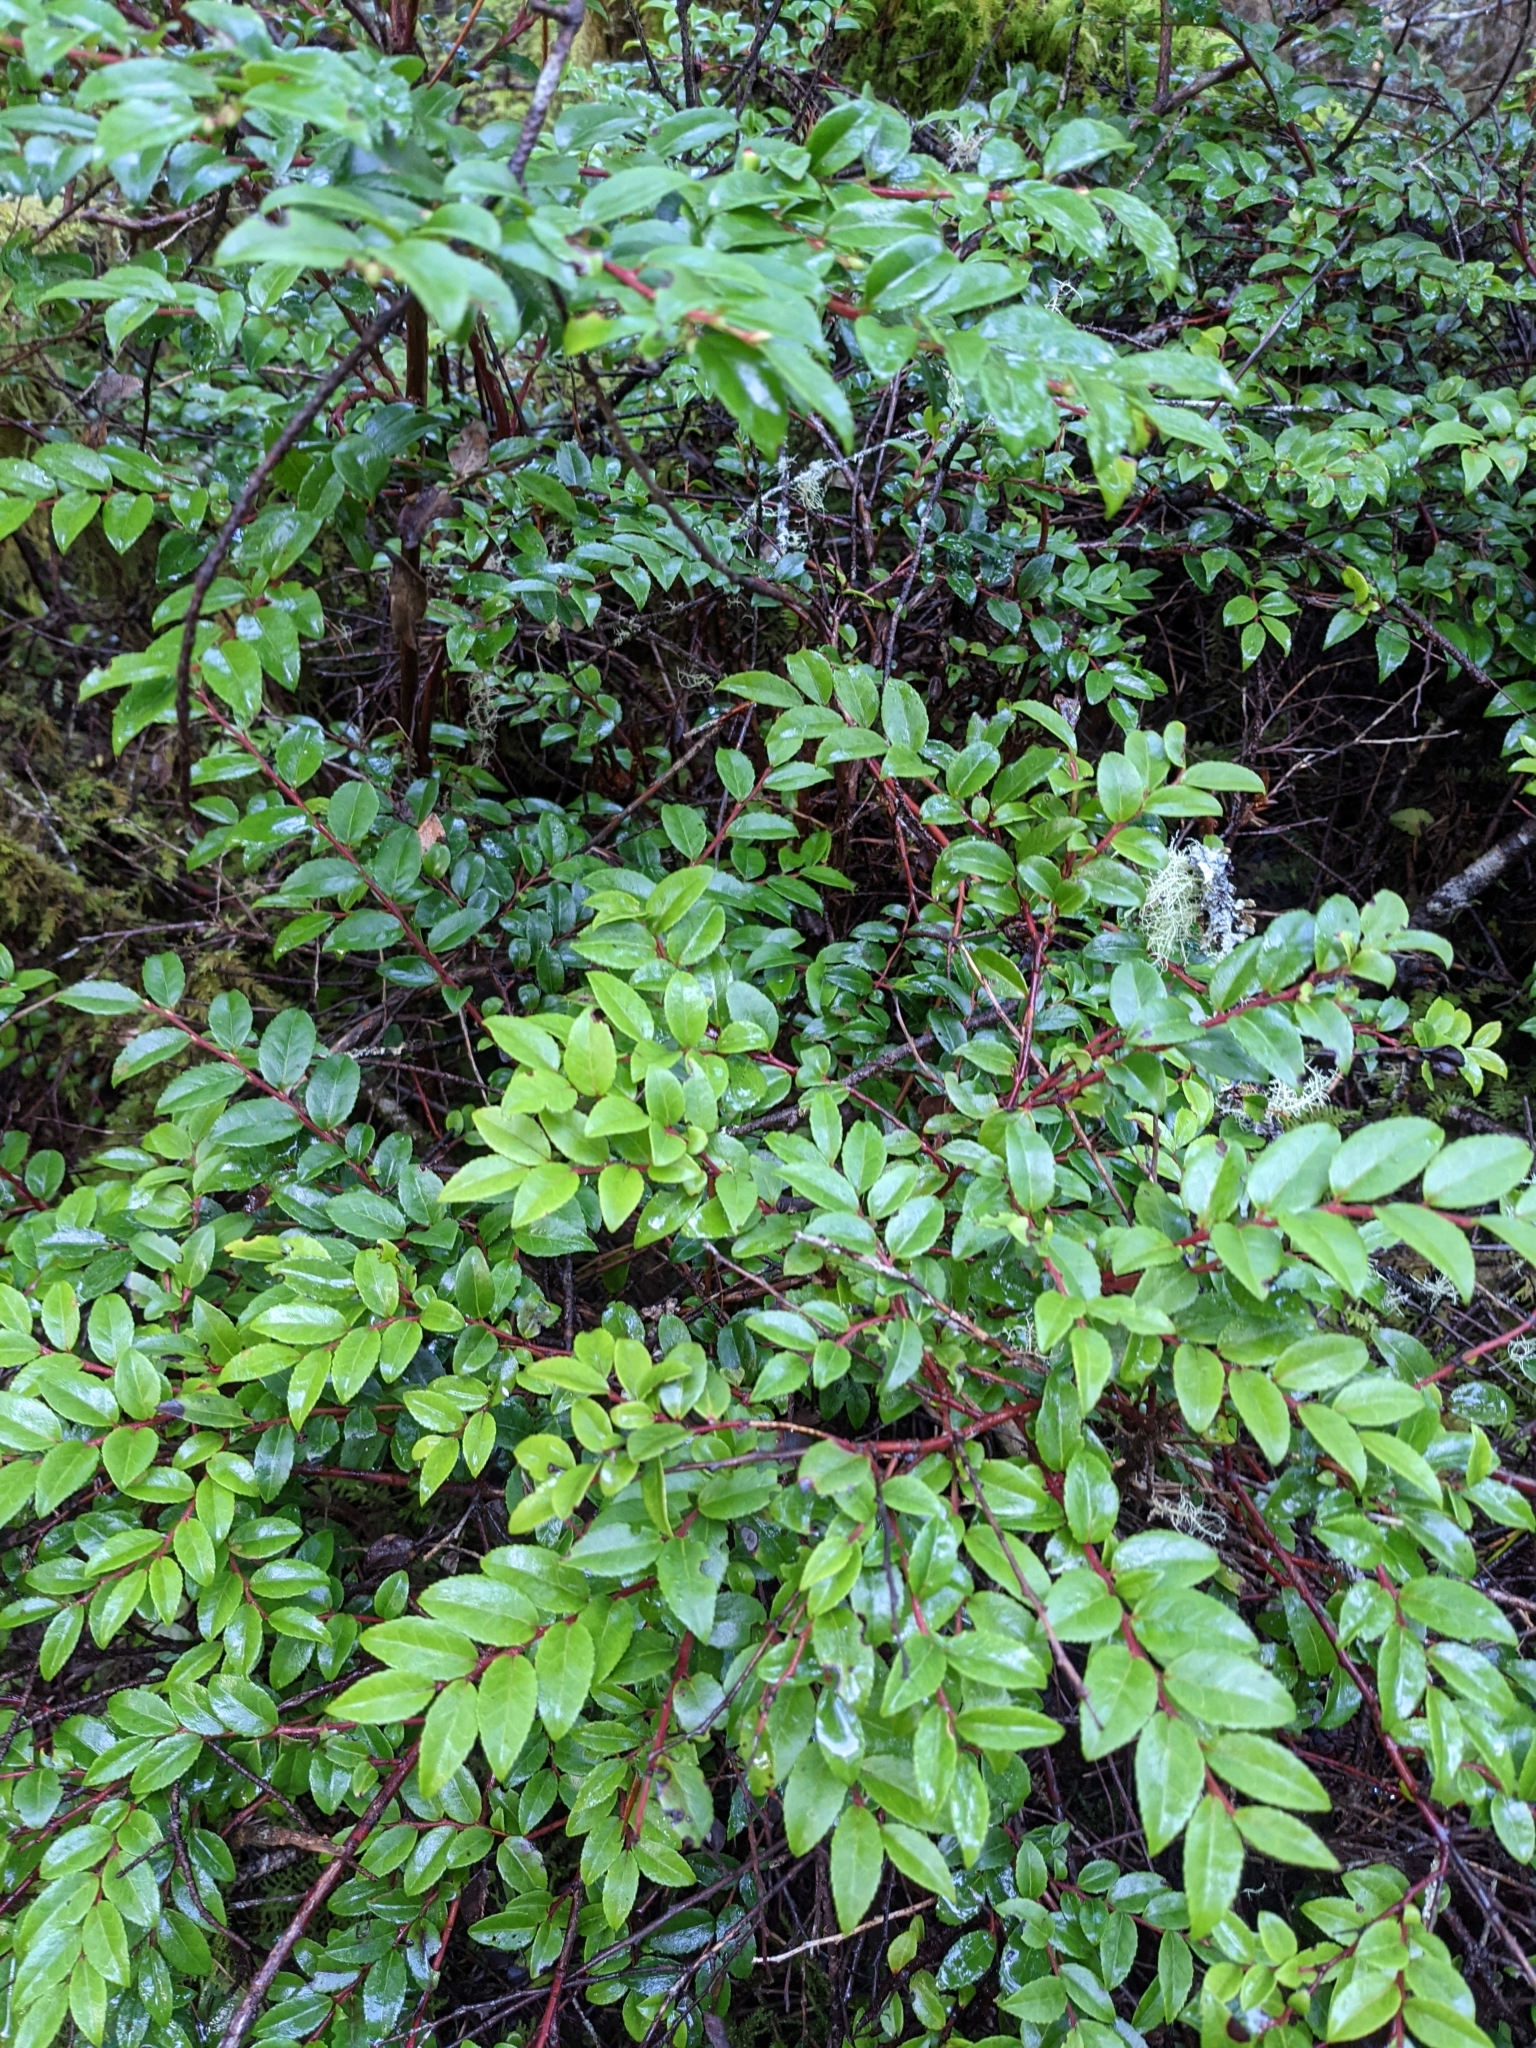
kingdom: Plantae
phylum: Tracheophyta
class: Magnoliopsida
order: Ericales
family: Ericaceae
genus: Vaccinium
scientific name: Vaccinium ovatum
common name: California-huckleberry
